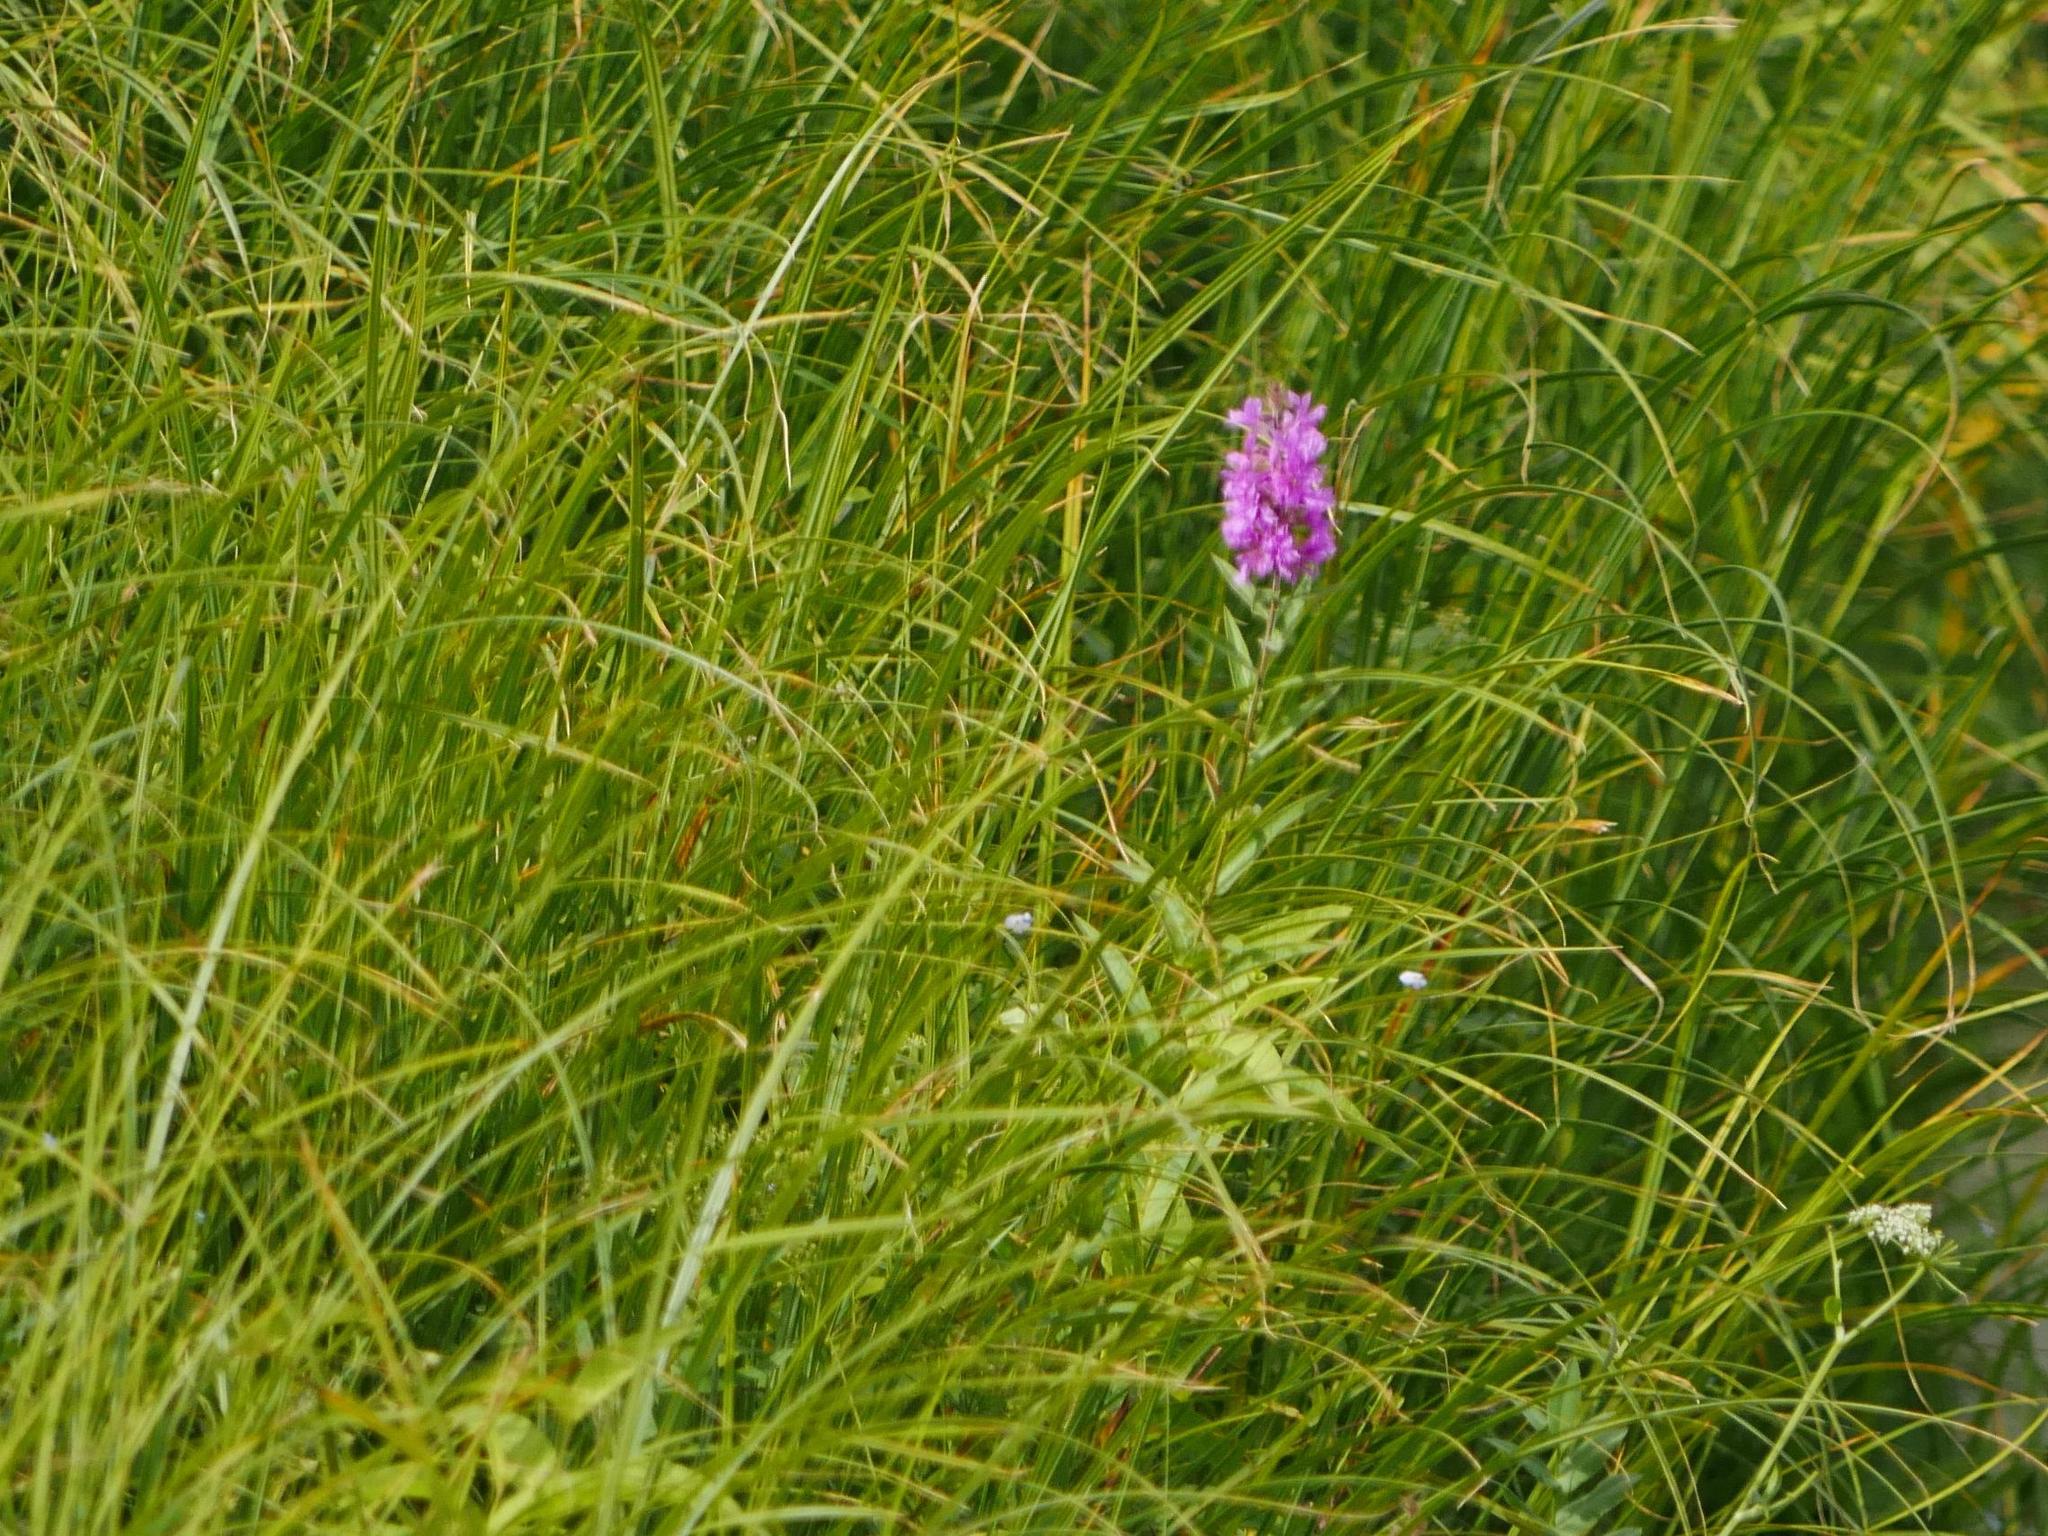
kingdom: Plantae
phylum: Tracheophyta
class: Magnoliopsida
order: Myrtales
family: Lythraceae
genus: Lythrum
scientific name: Lythrum salicaria
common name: Purple loosestrife
